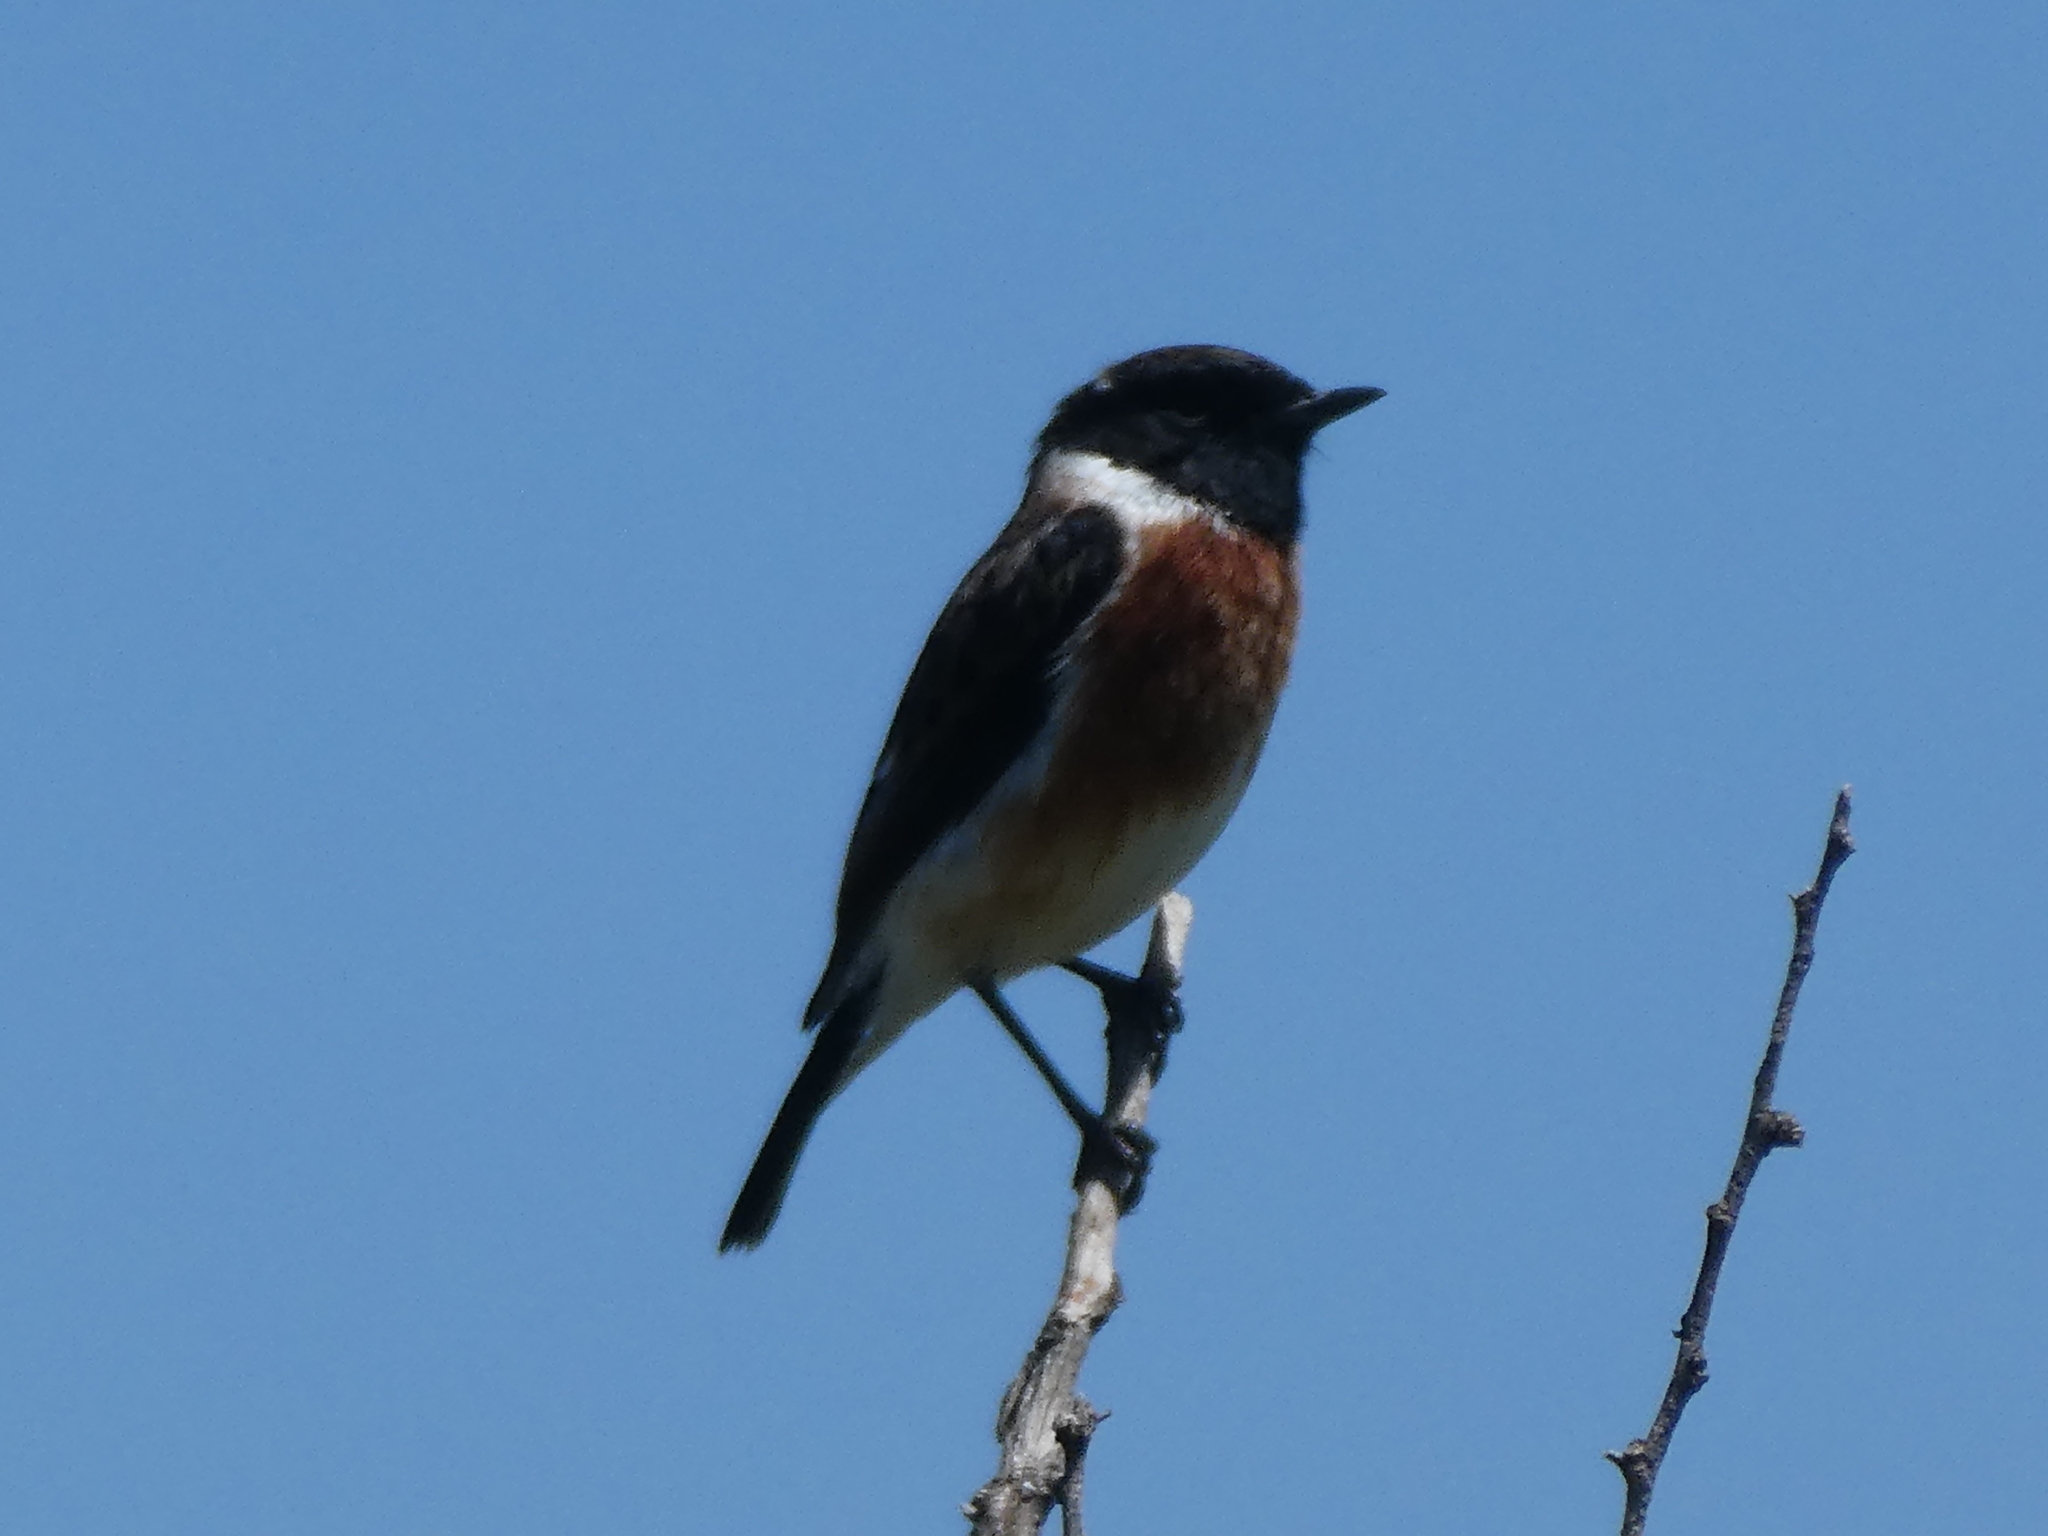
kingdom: Animalia
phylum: Chordata
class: Aves
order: Passeriformes
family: Muscicapidae
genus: Saxicola
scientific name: Saxicola torquatus
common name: African stonechat
